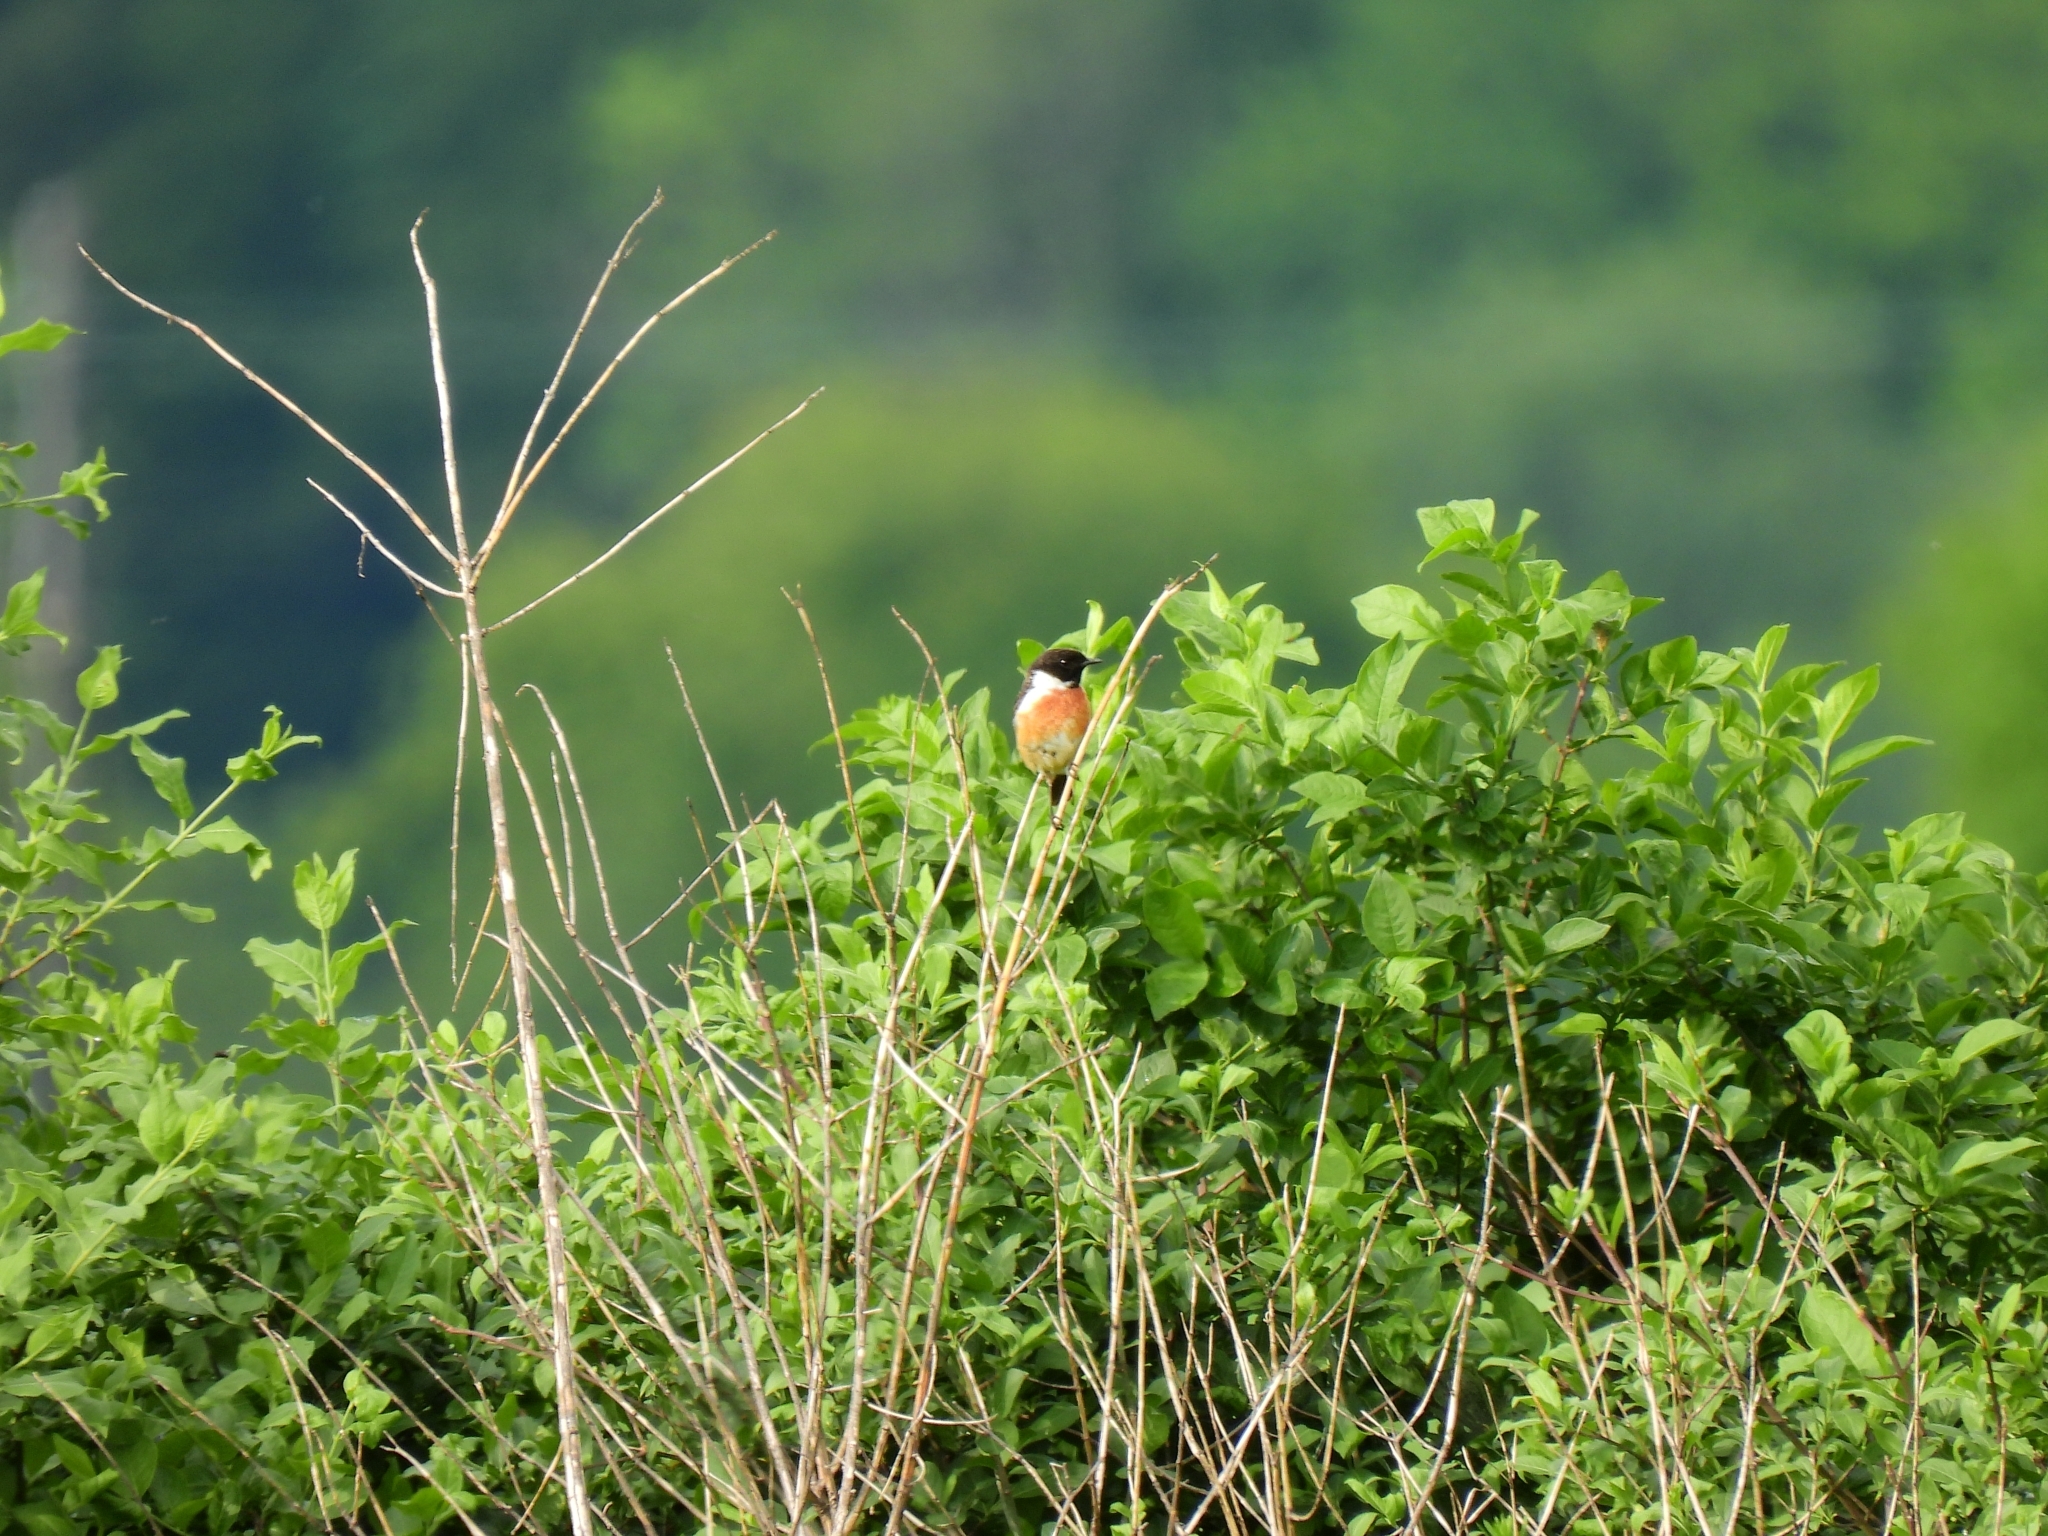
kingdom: Animalia
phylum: Chordata
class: Aves
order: Passeriformes
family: Muscicapidae
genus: Saxicola
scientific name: Saxicola rubicola
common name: European stonechat
